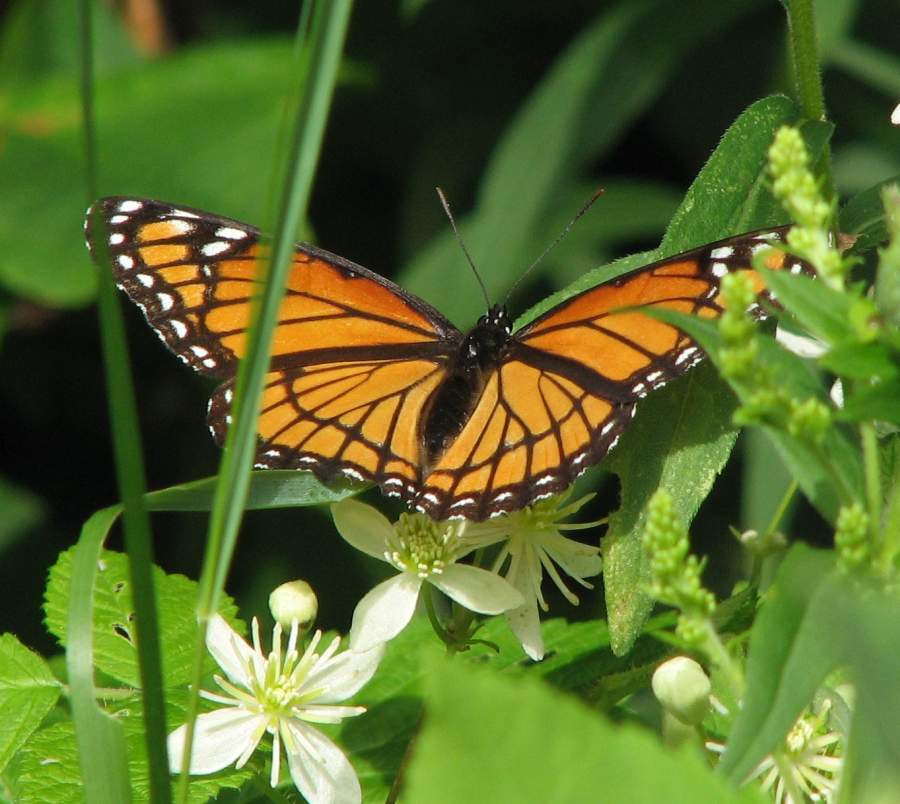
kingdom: Animalia
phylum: Arthropoda
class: Insecta
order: Lepidoptera
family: Nymphalidae
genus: Limenitis
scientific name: Limenitis archippus
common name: Viceroy
